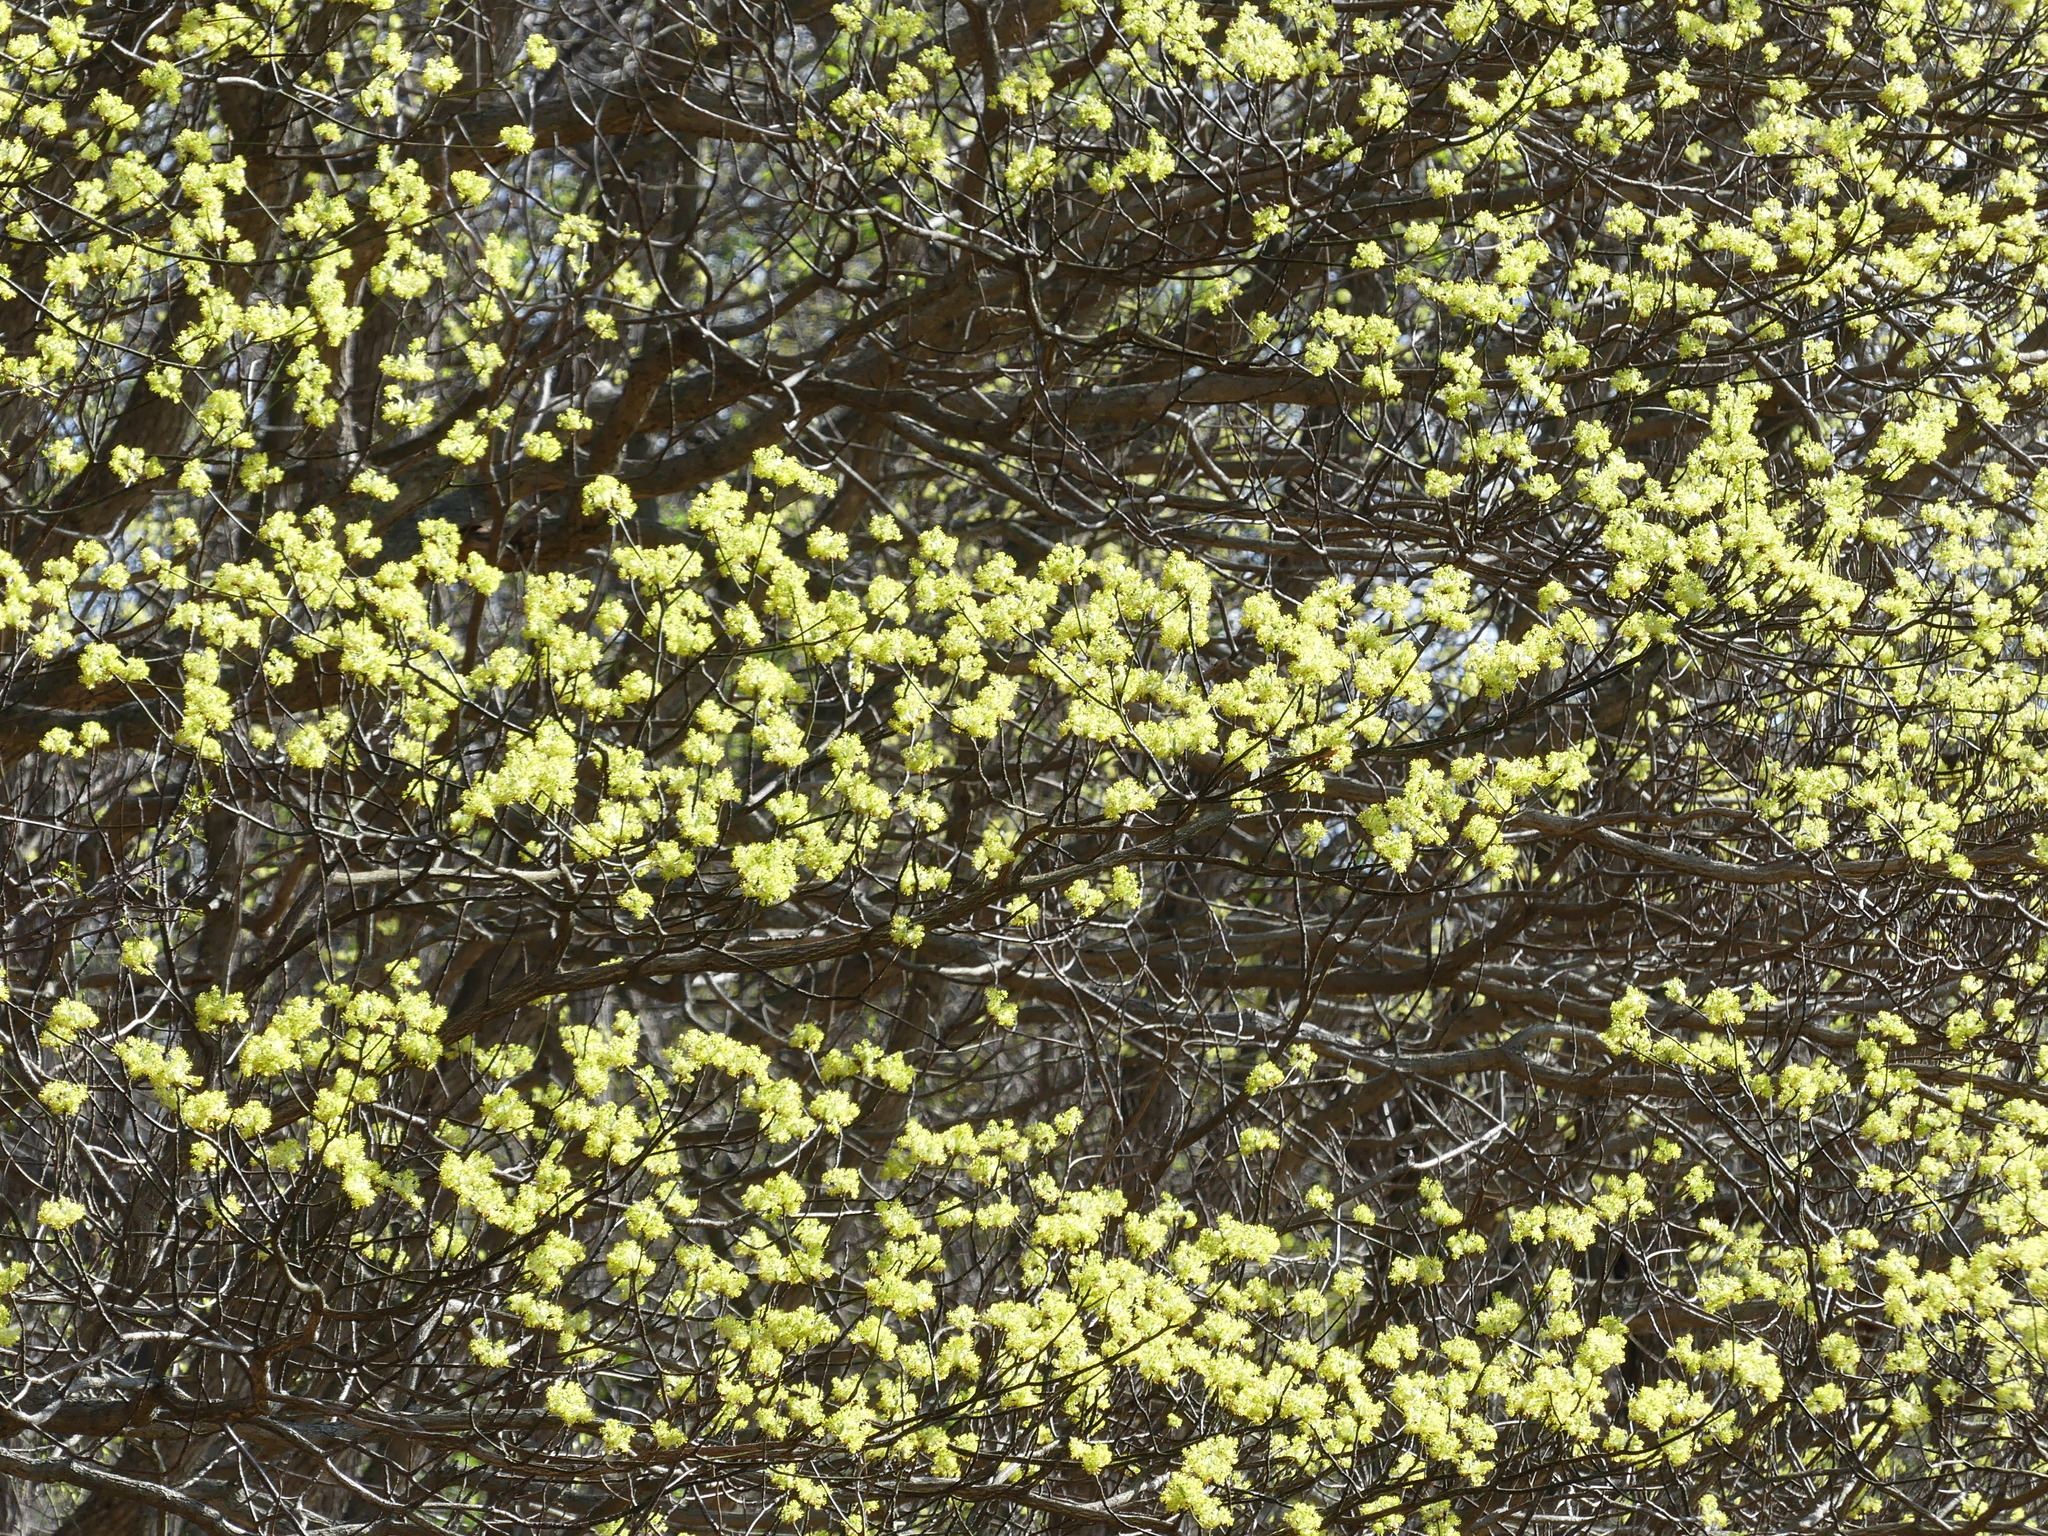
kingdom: Plantae
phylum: Tracheophyta
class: Magnoliopsida
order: Laurales
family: Lauraceae
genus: Sassafras
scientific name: Sassafras albidum
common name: Sassafras
